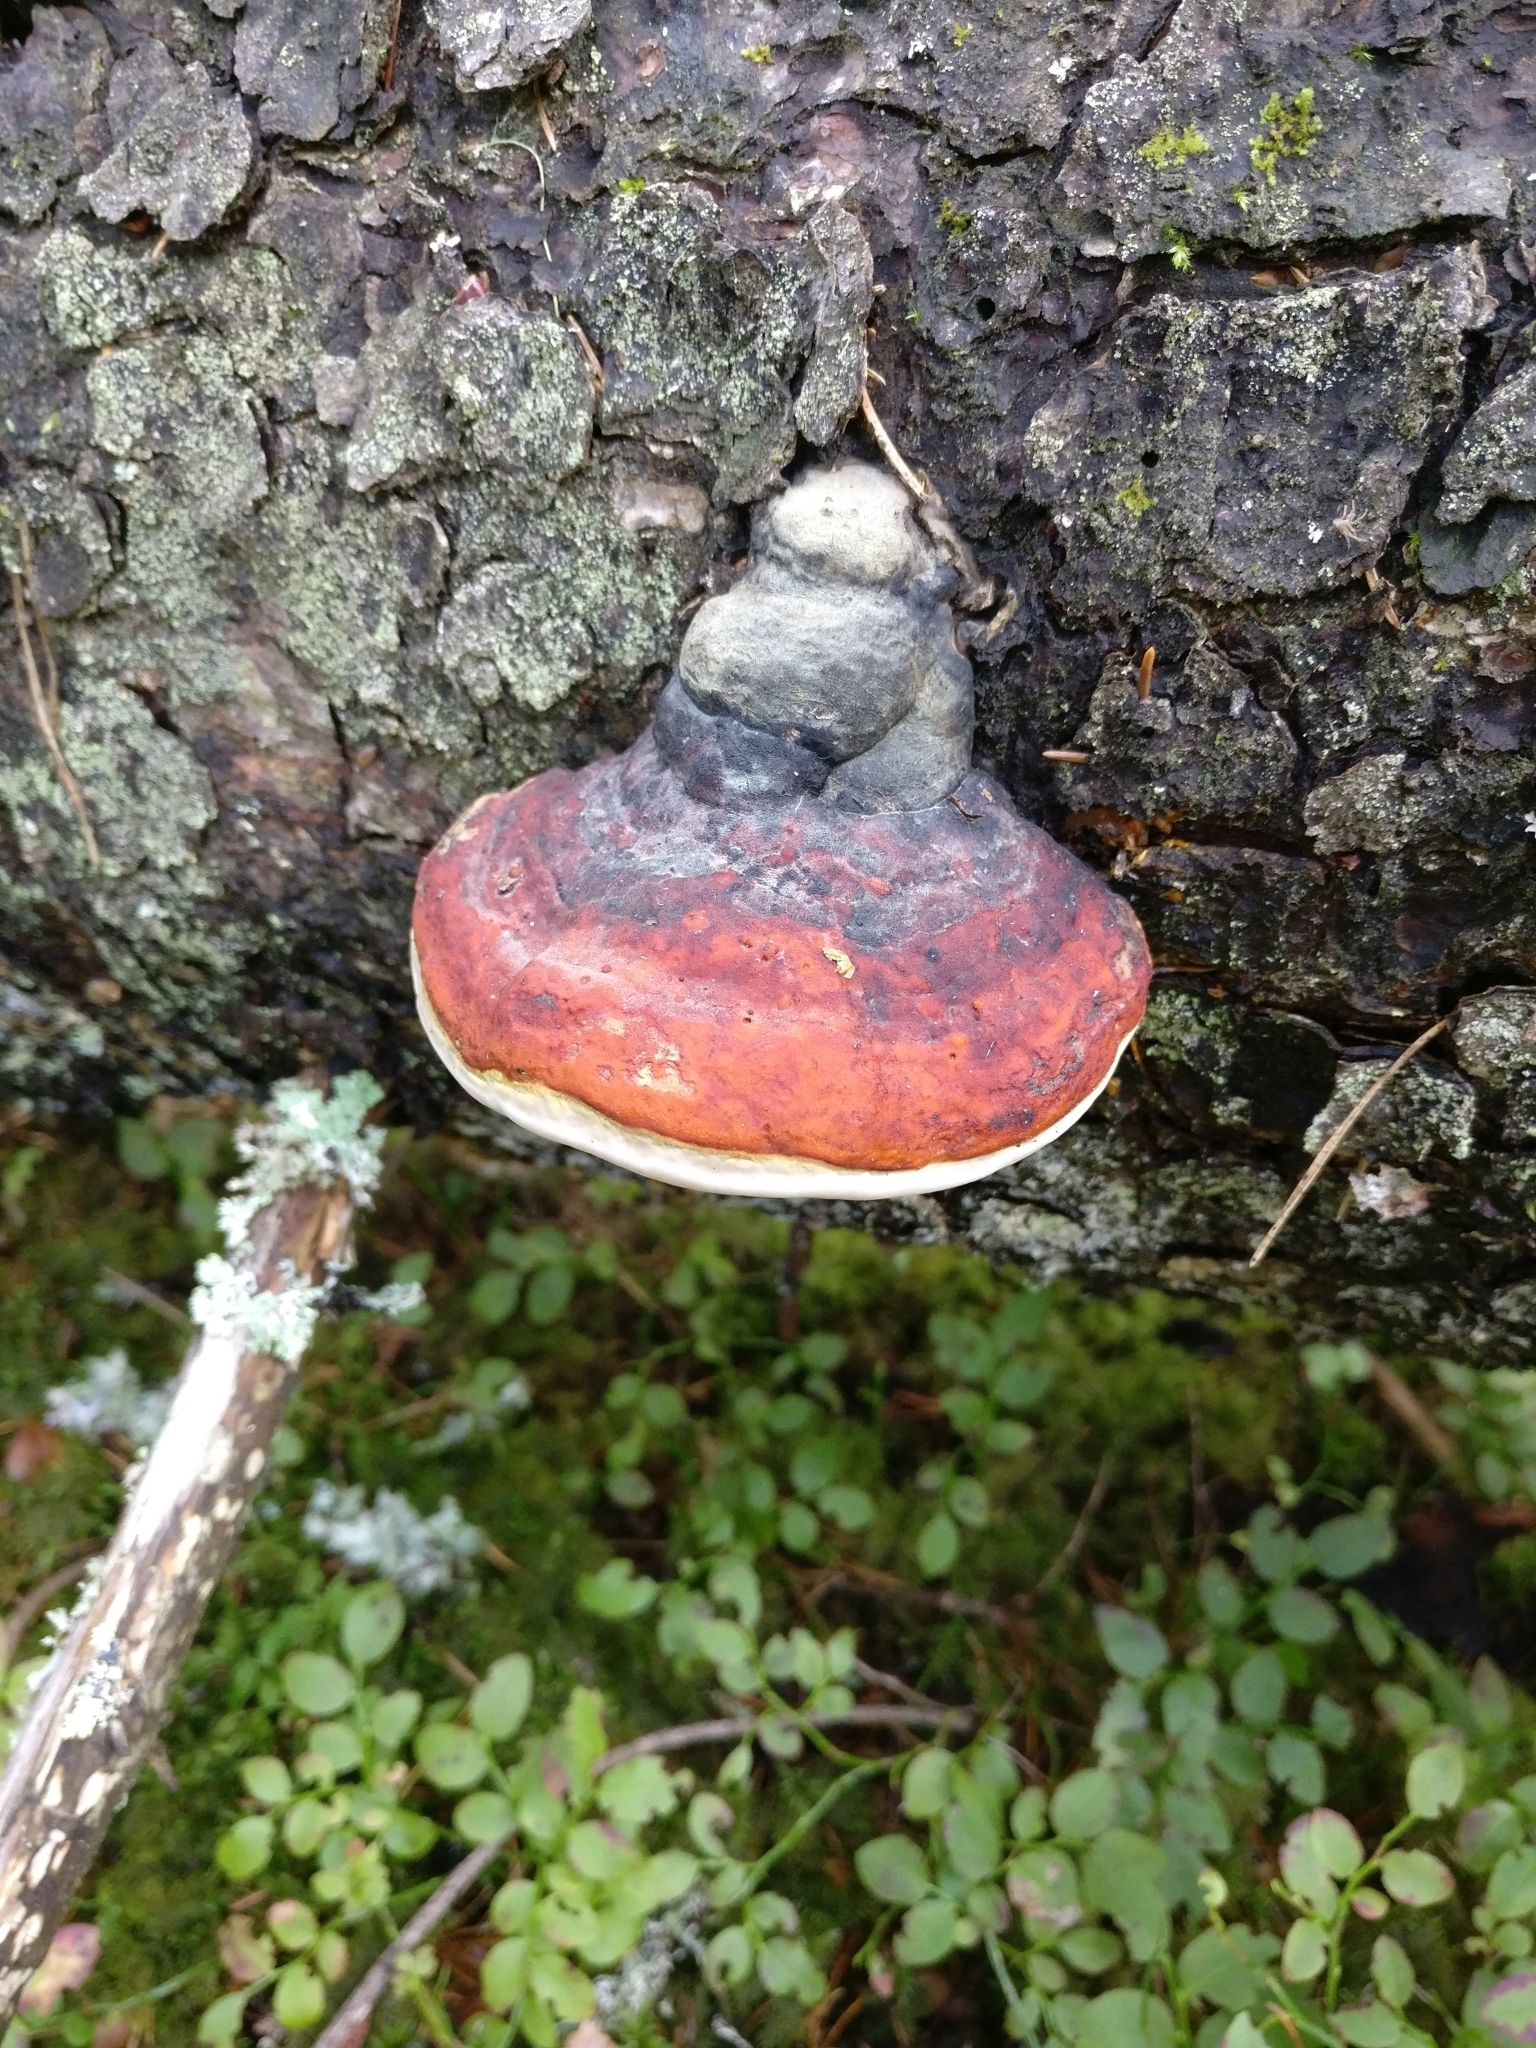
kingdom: Fungi
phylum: Basidiomycota
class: Agaricomycetes
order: Polyporales
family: Fomitopsidaceae
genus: Fomitopsis
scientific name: Fomitopsis pinicola
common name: Red-belted bracket
